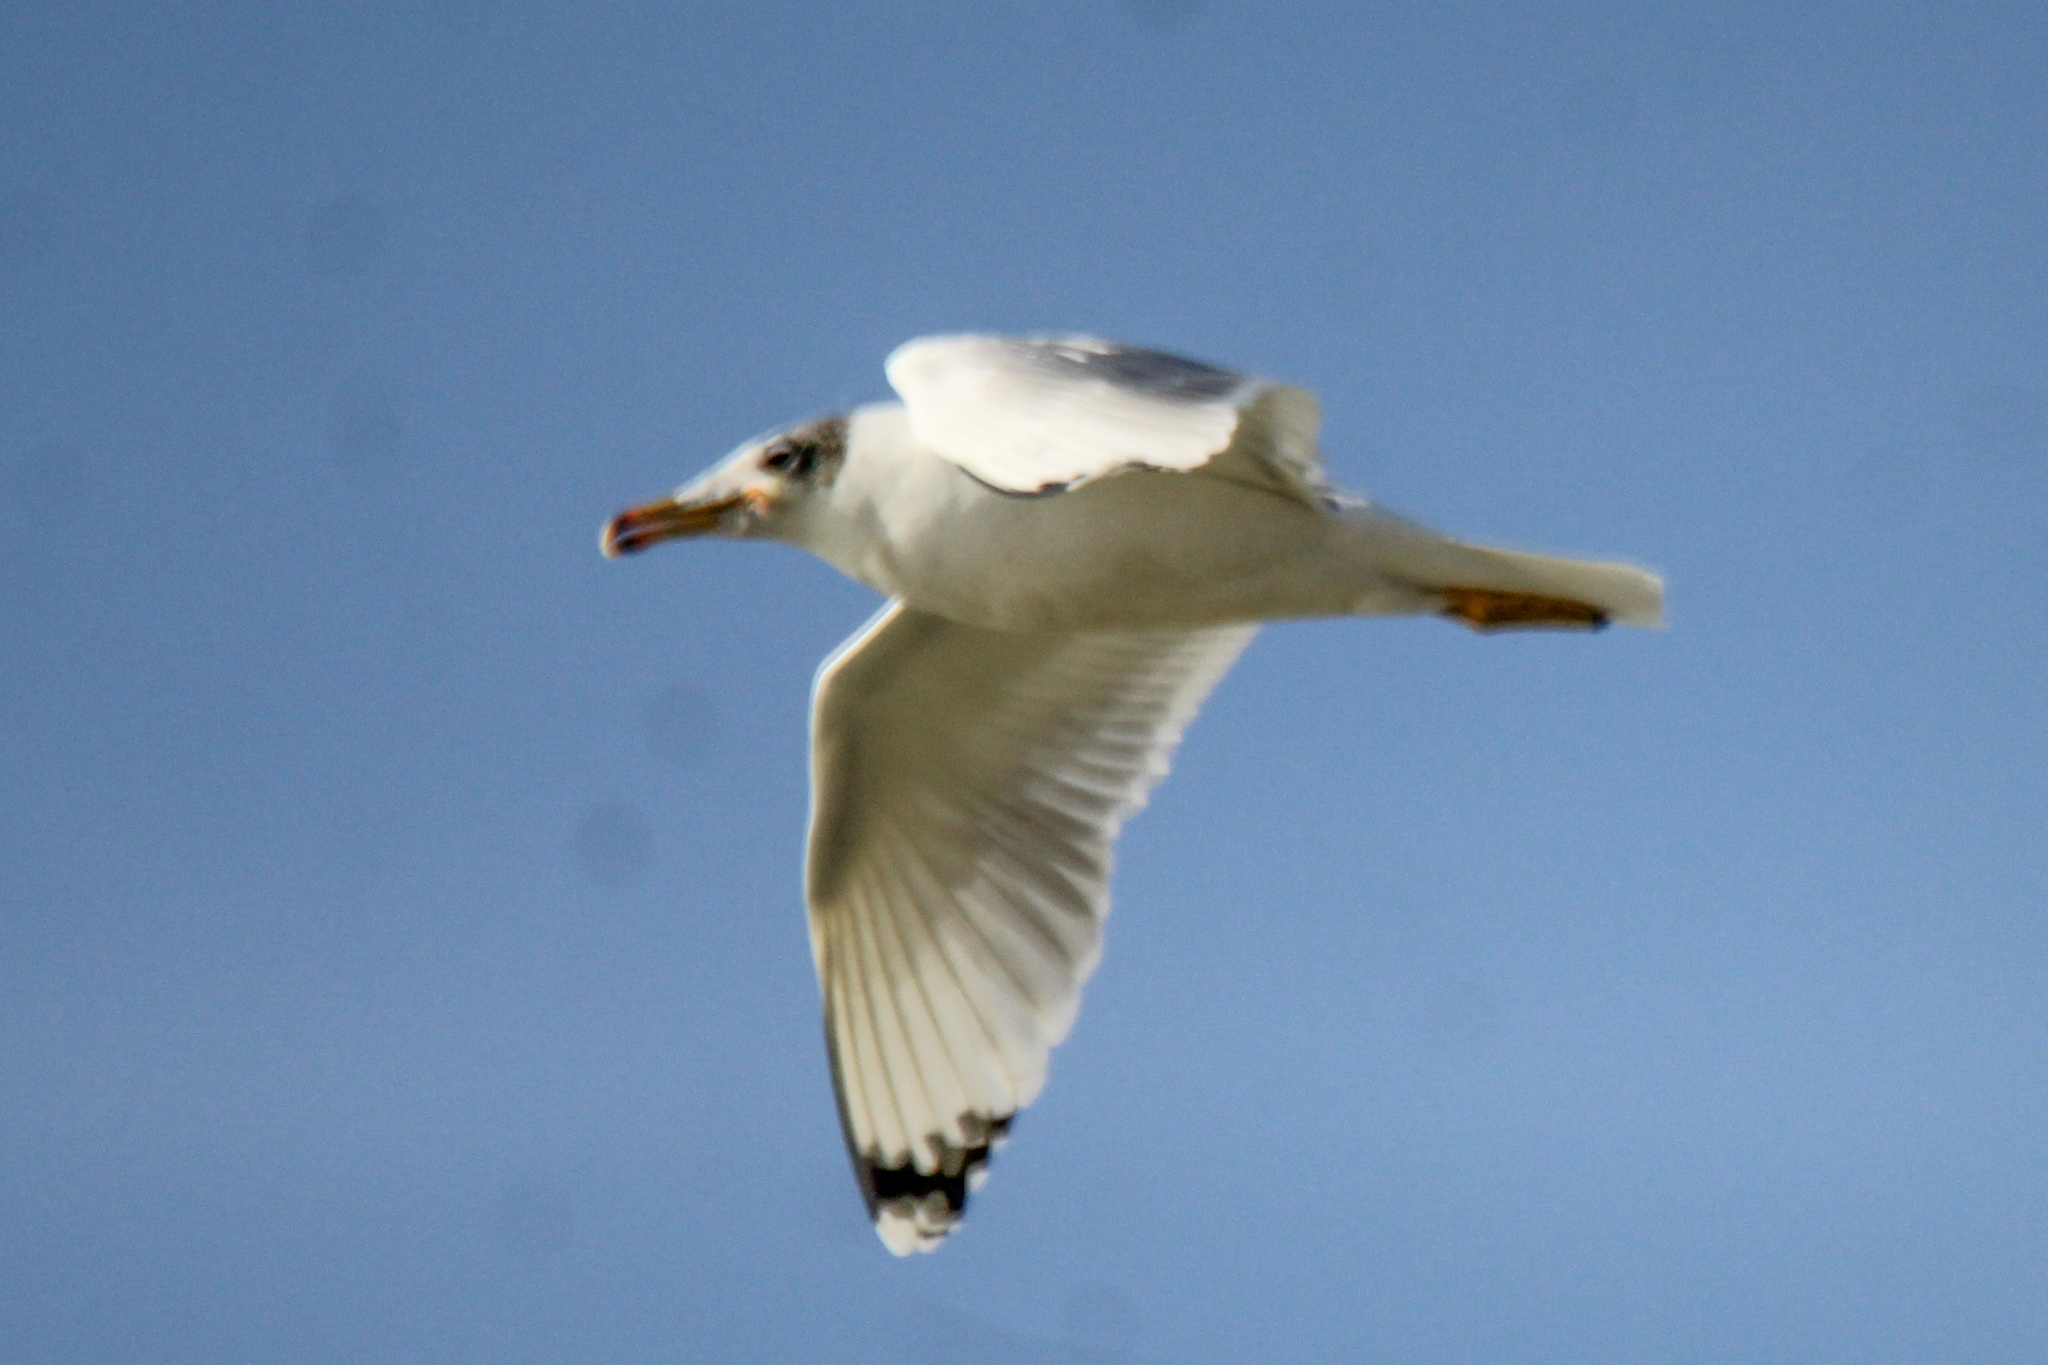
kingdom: Animalia
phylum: Chordata
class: Aves
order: Charadriiformes
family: Laridae
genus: Ichthyaetus
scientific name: Ichthyaetus ichthyaetus
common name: Pallas's gull
